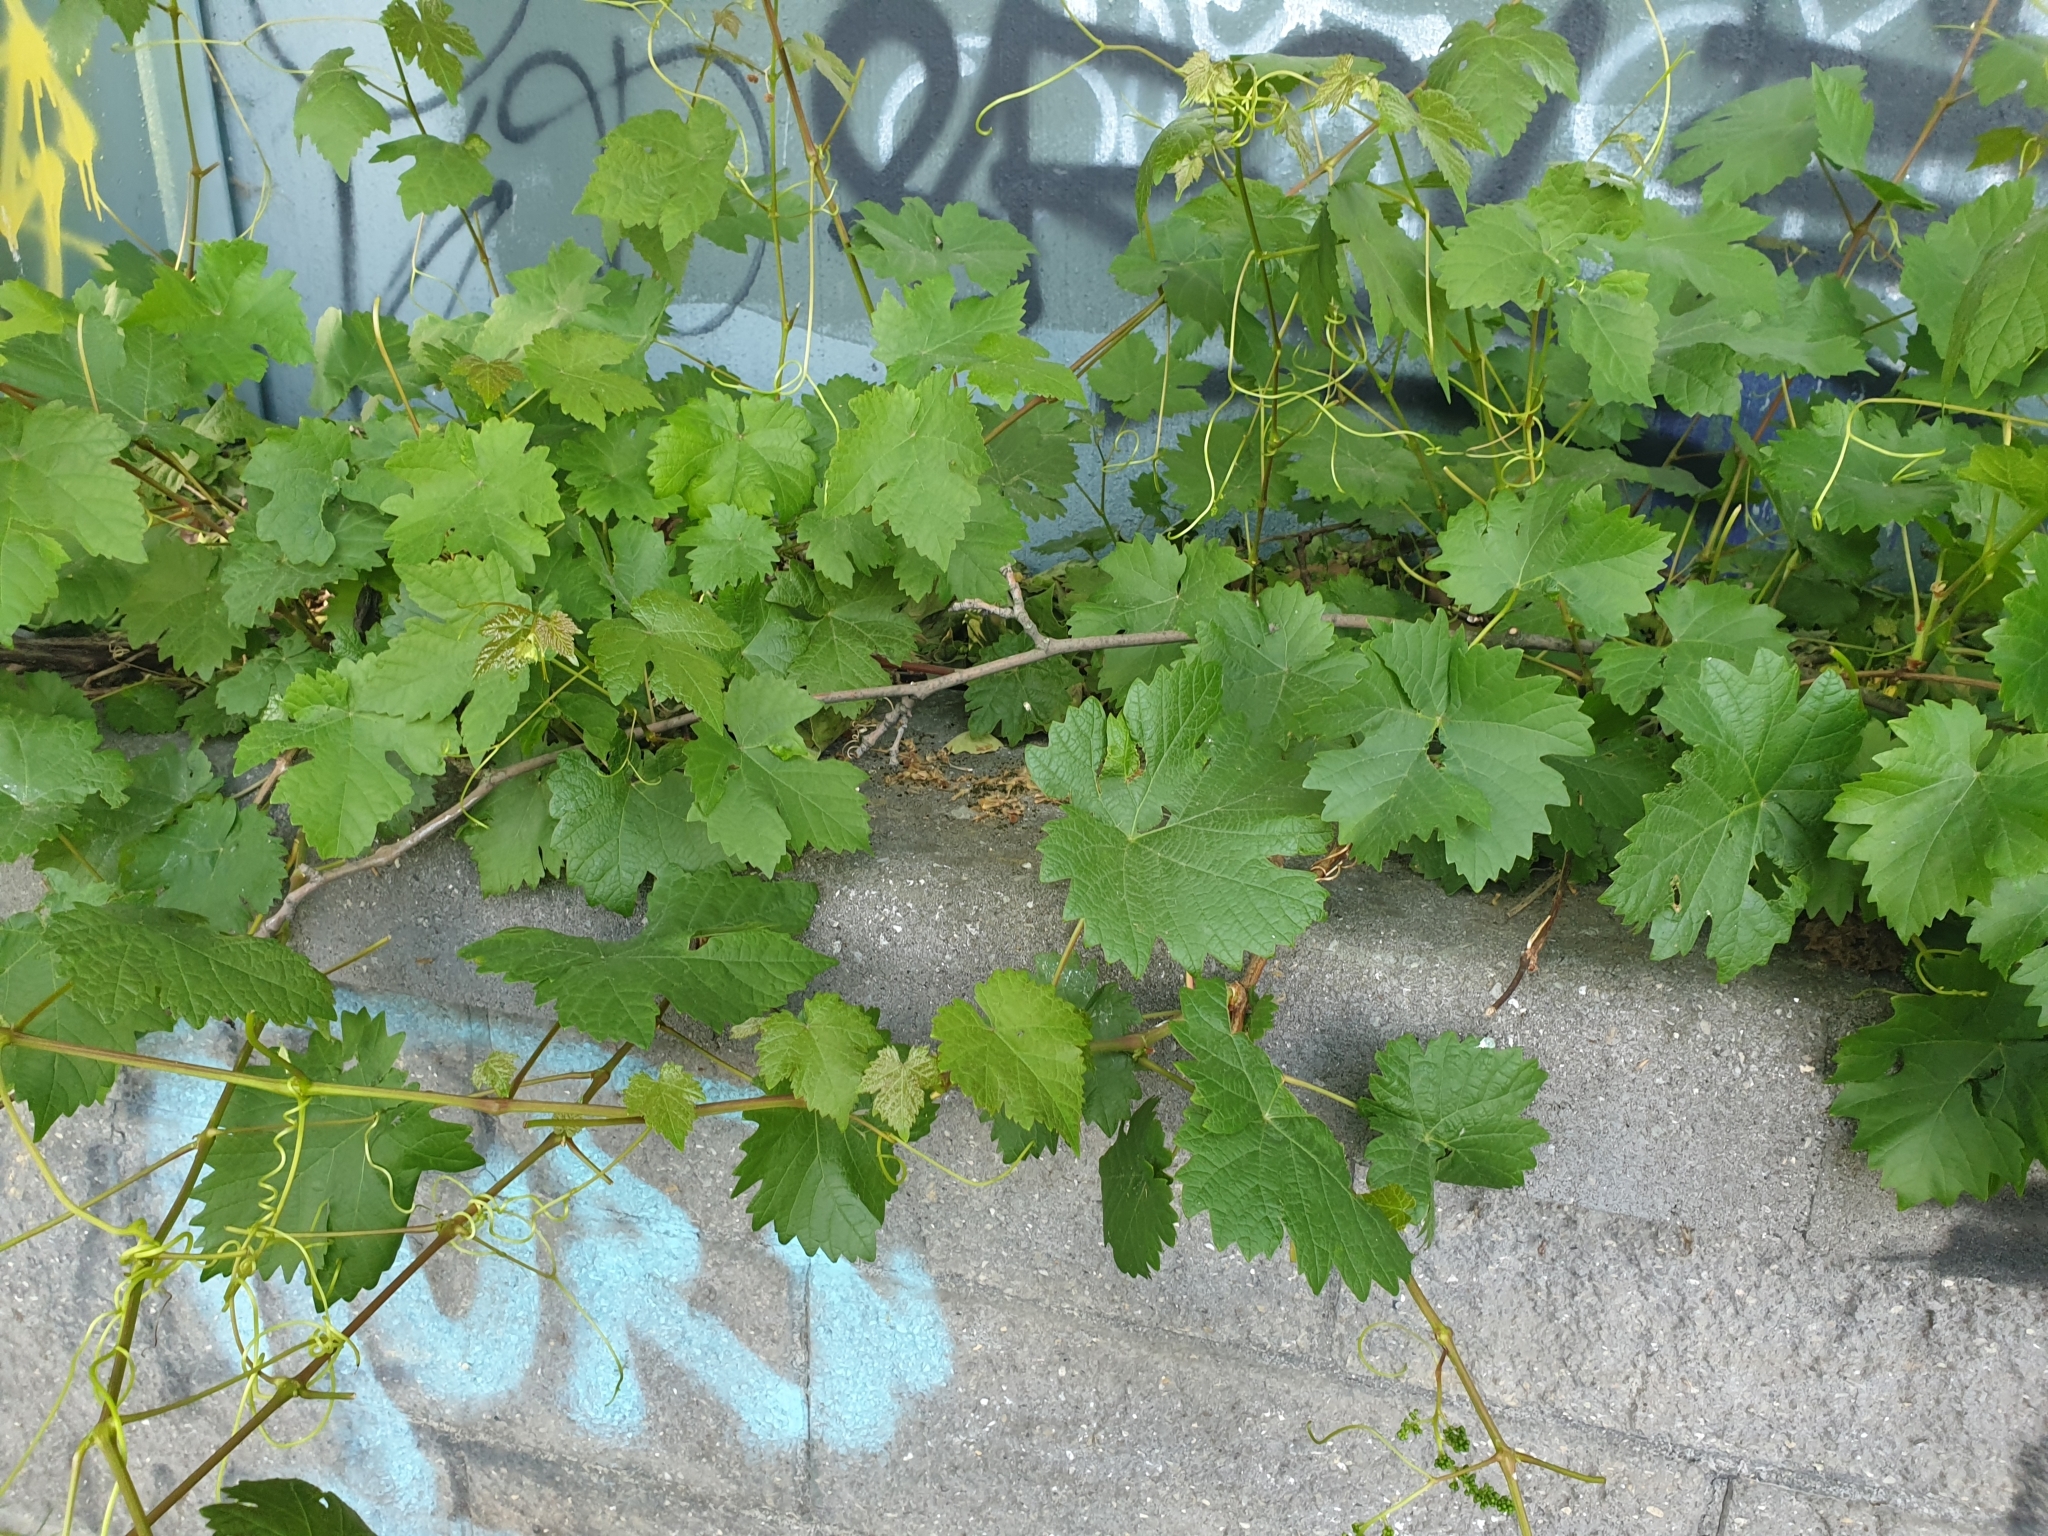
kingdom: Plantae
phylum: Tracheophyta
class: Magnoliopsida
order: Vitales
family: Vitaceae
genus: Vitis
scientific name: Vitis vinifera
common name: Grape-vine
